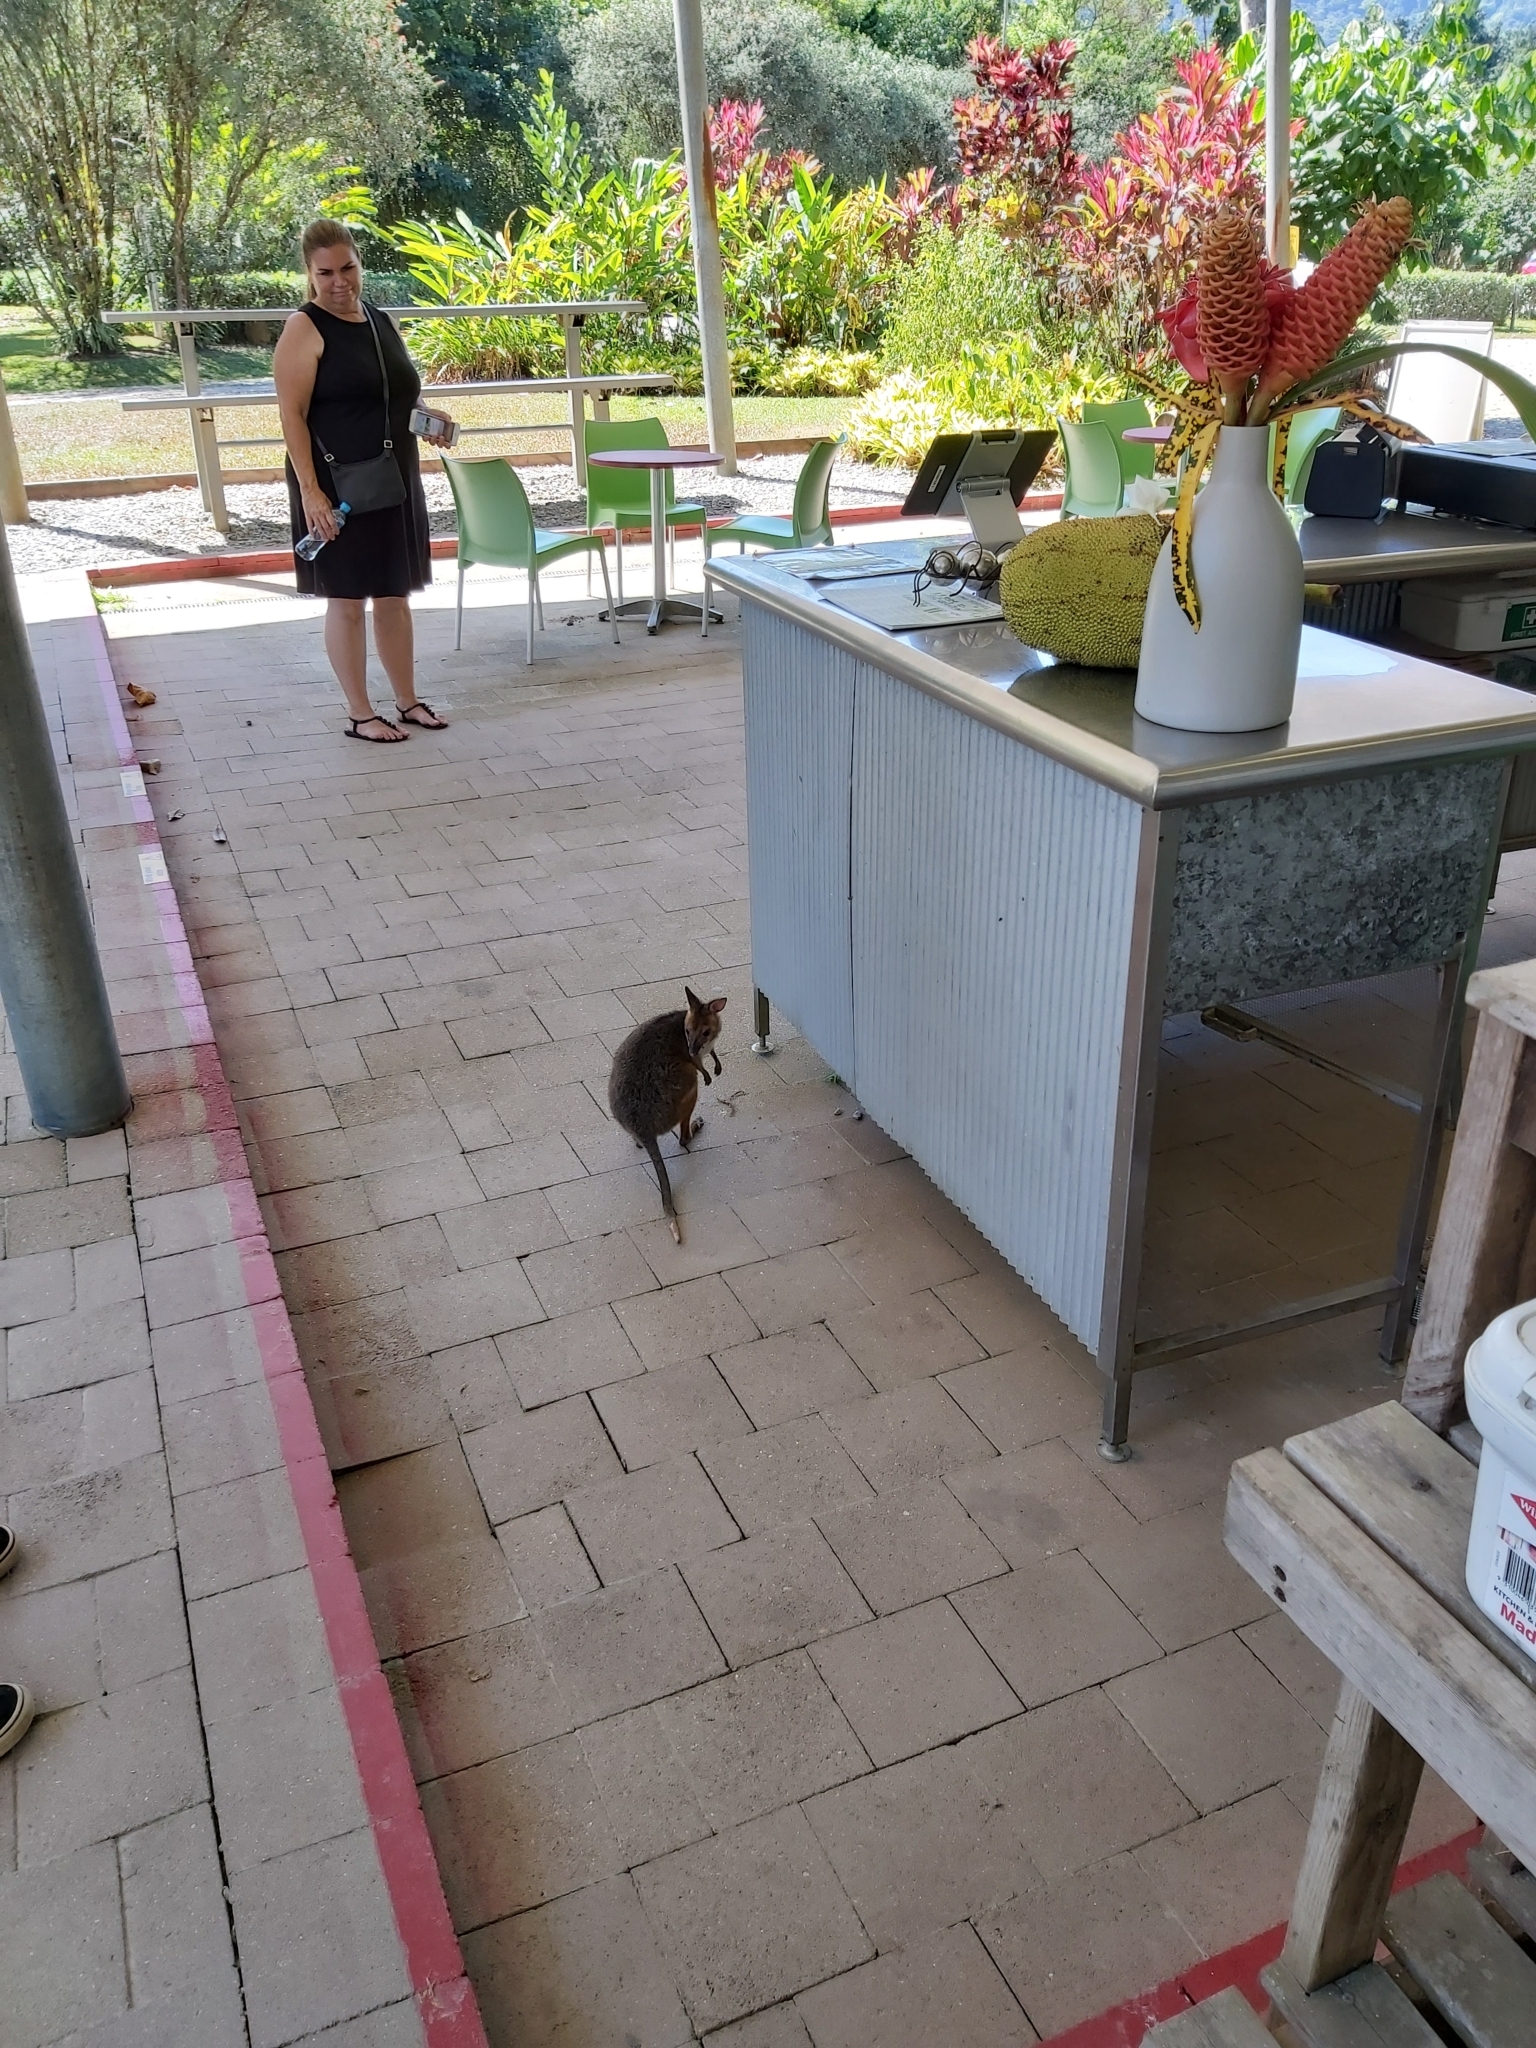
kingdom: Animalia
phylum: Chordata
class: Mammalia
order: Diprotodontia
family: Macropodidae
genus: Thylogale
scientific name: Thylogale stigmatica
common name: Red-legged pademelon
